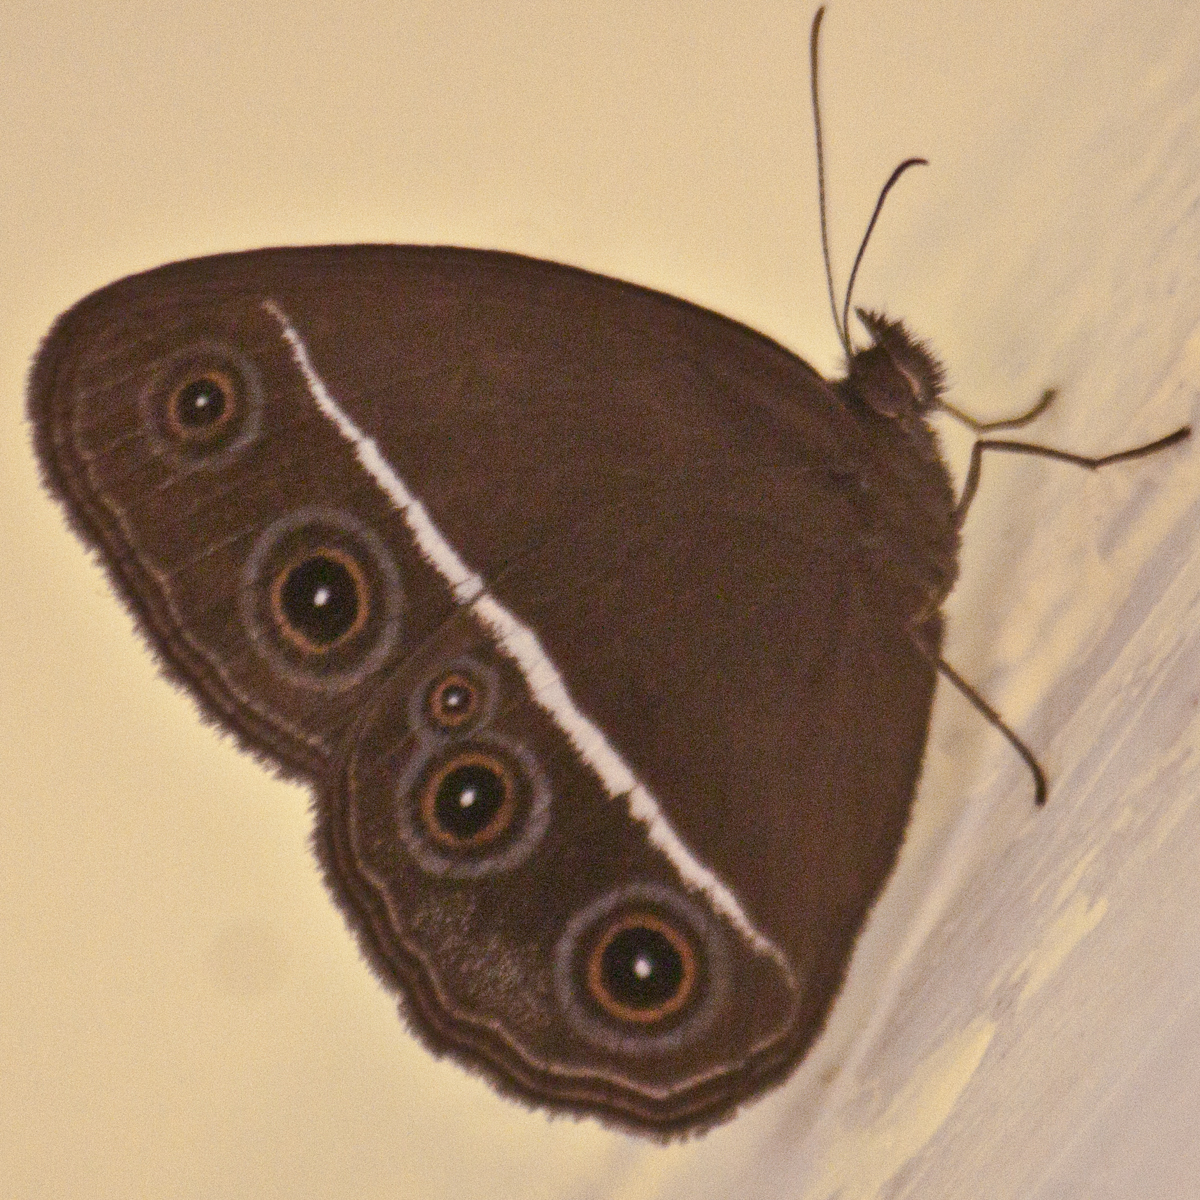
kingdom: Animalia
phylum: Arthropoda
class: Insecta
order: Lepidoptera
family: Nymphalidae
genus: Orsotriaena
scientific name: Orsotriaena medus
